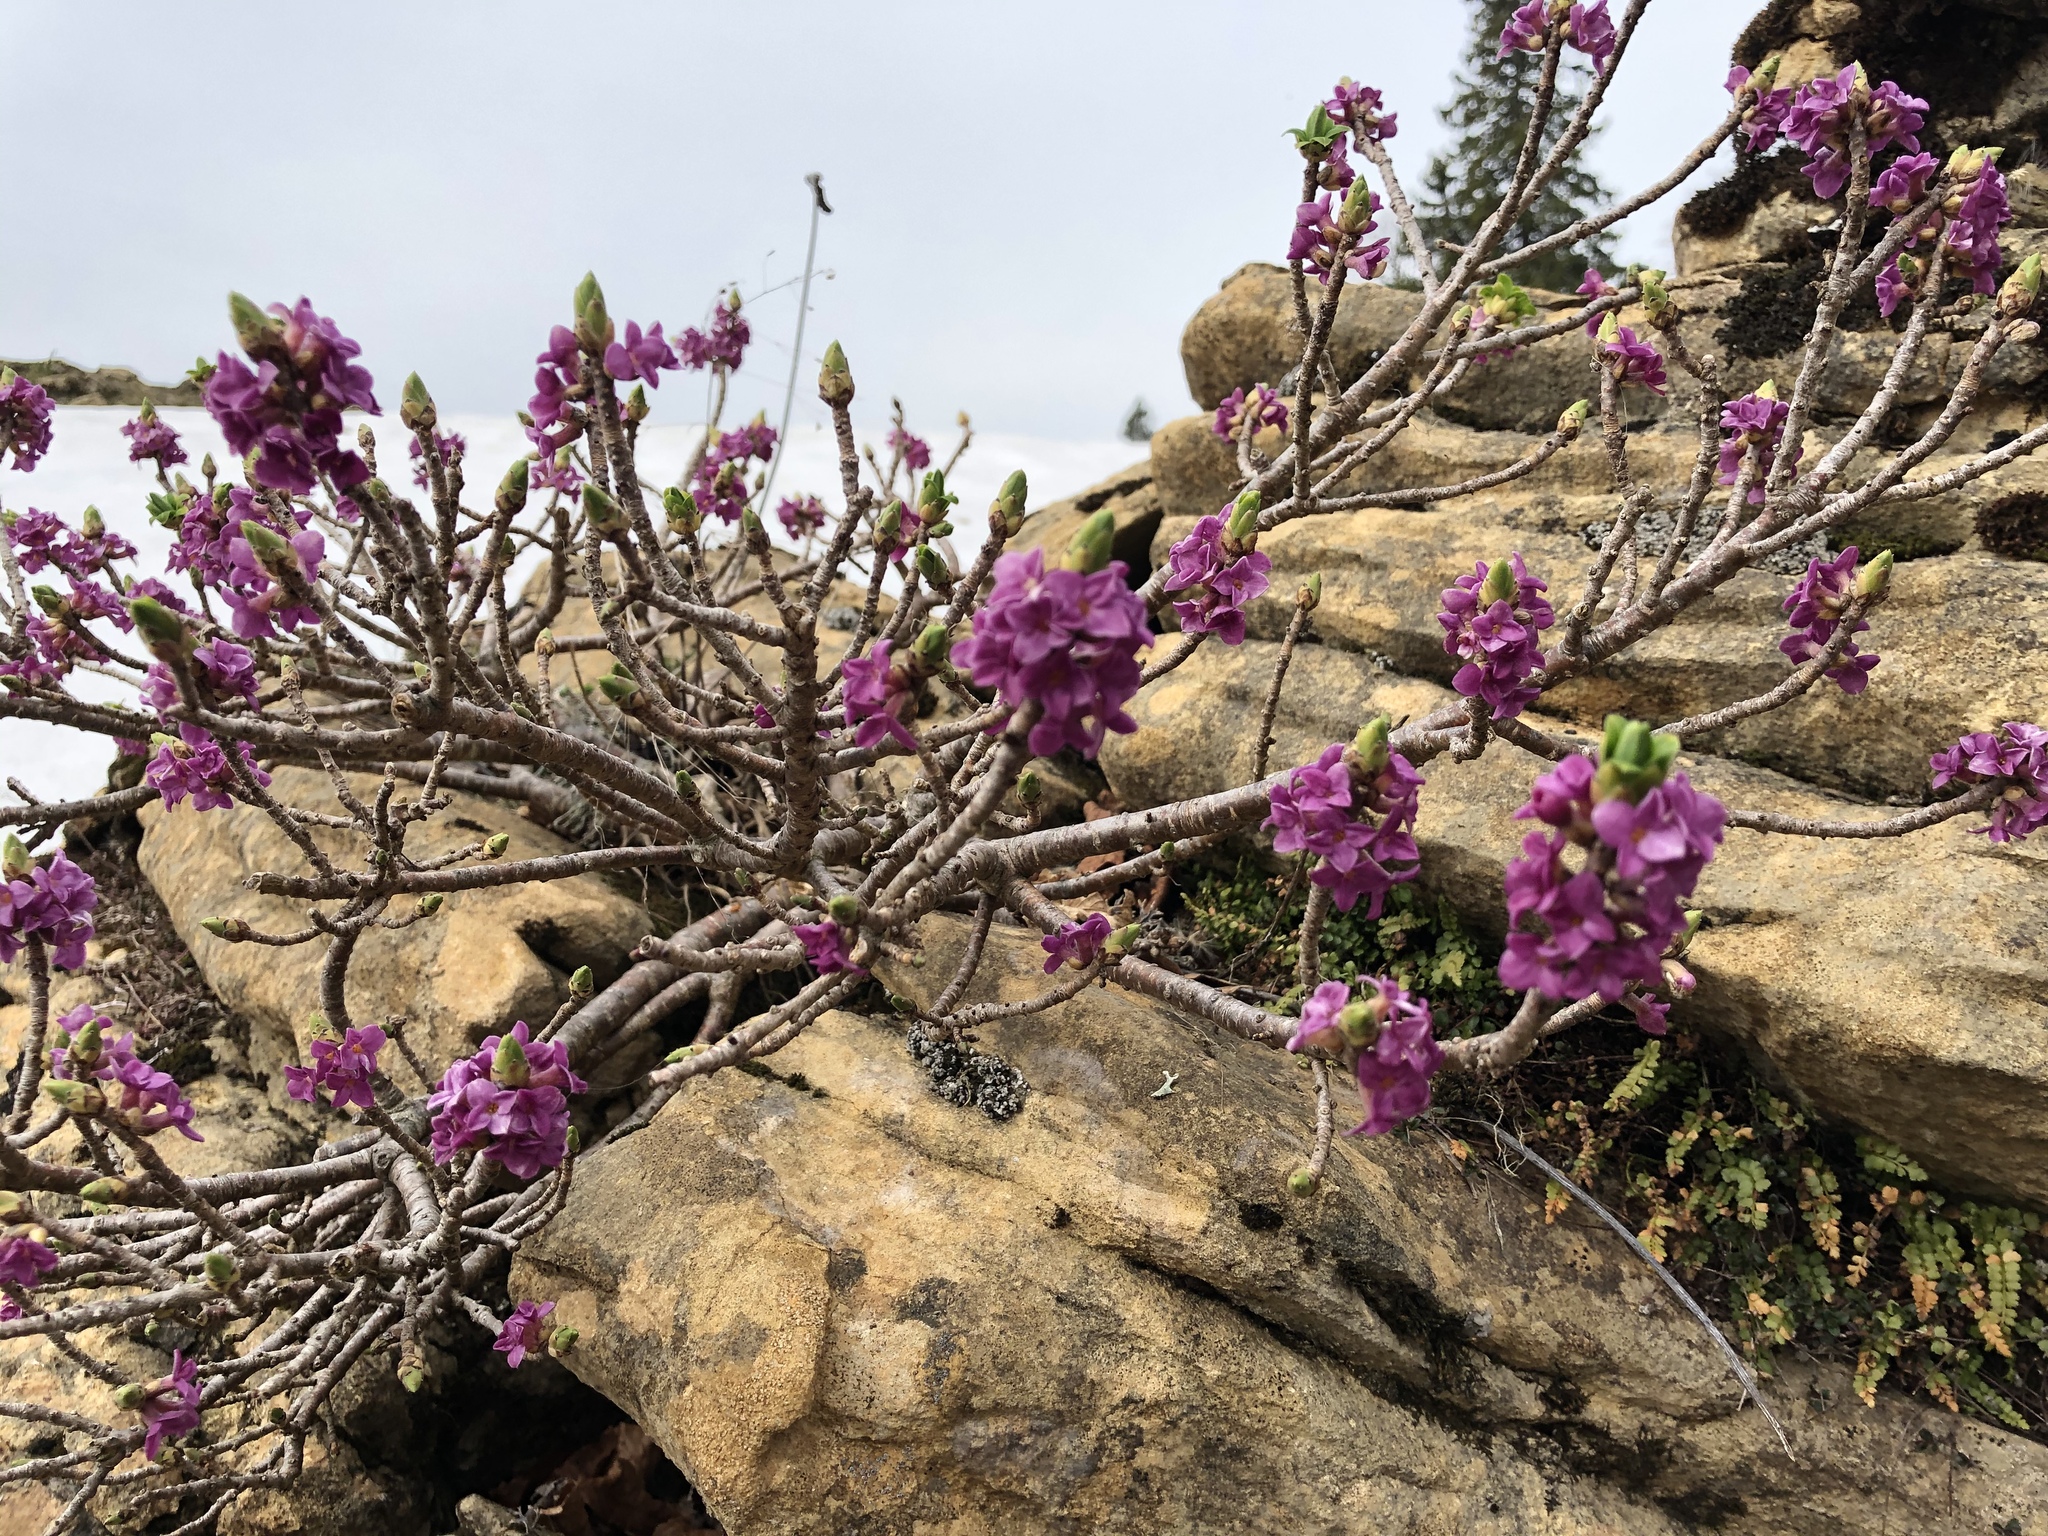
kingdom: Plantae
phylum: Tracheophyta
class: Magnoliopsida
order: Malvales
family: Thymelaeaceae
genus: Daphne
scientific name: Daphne mezereum
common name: Mezereon
